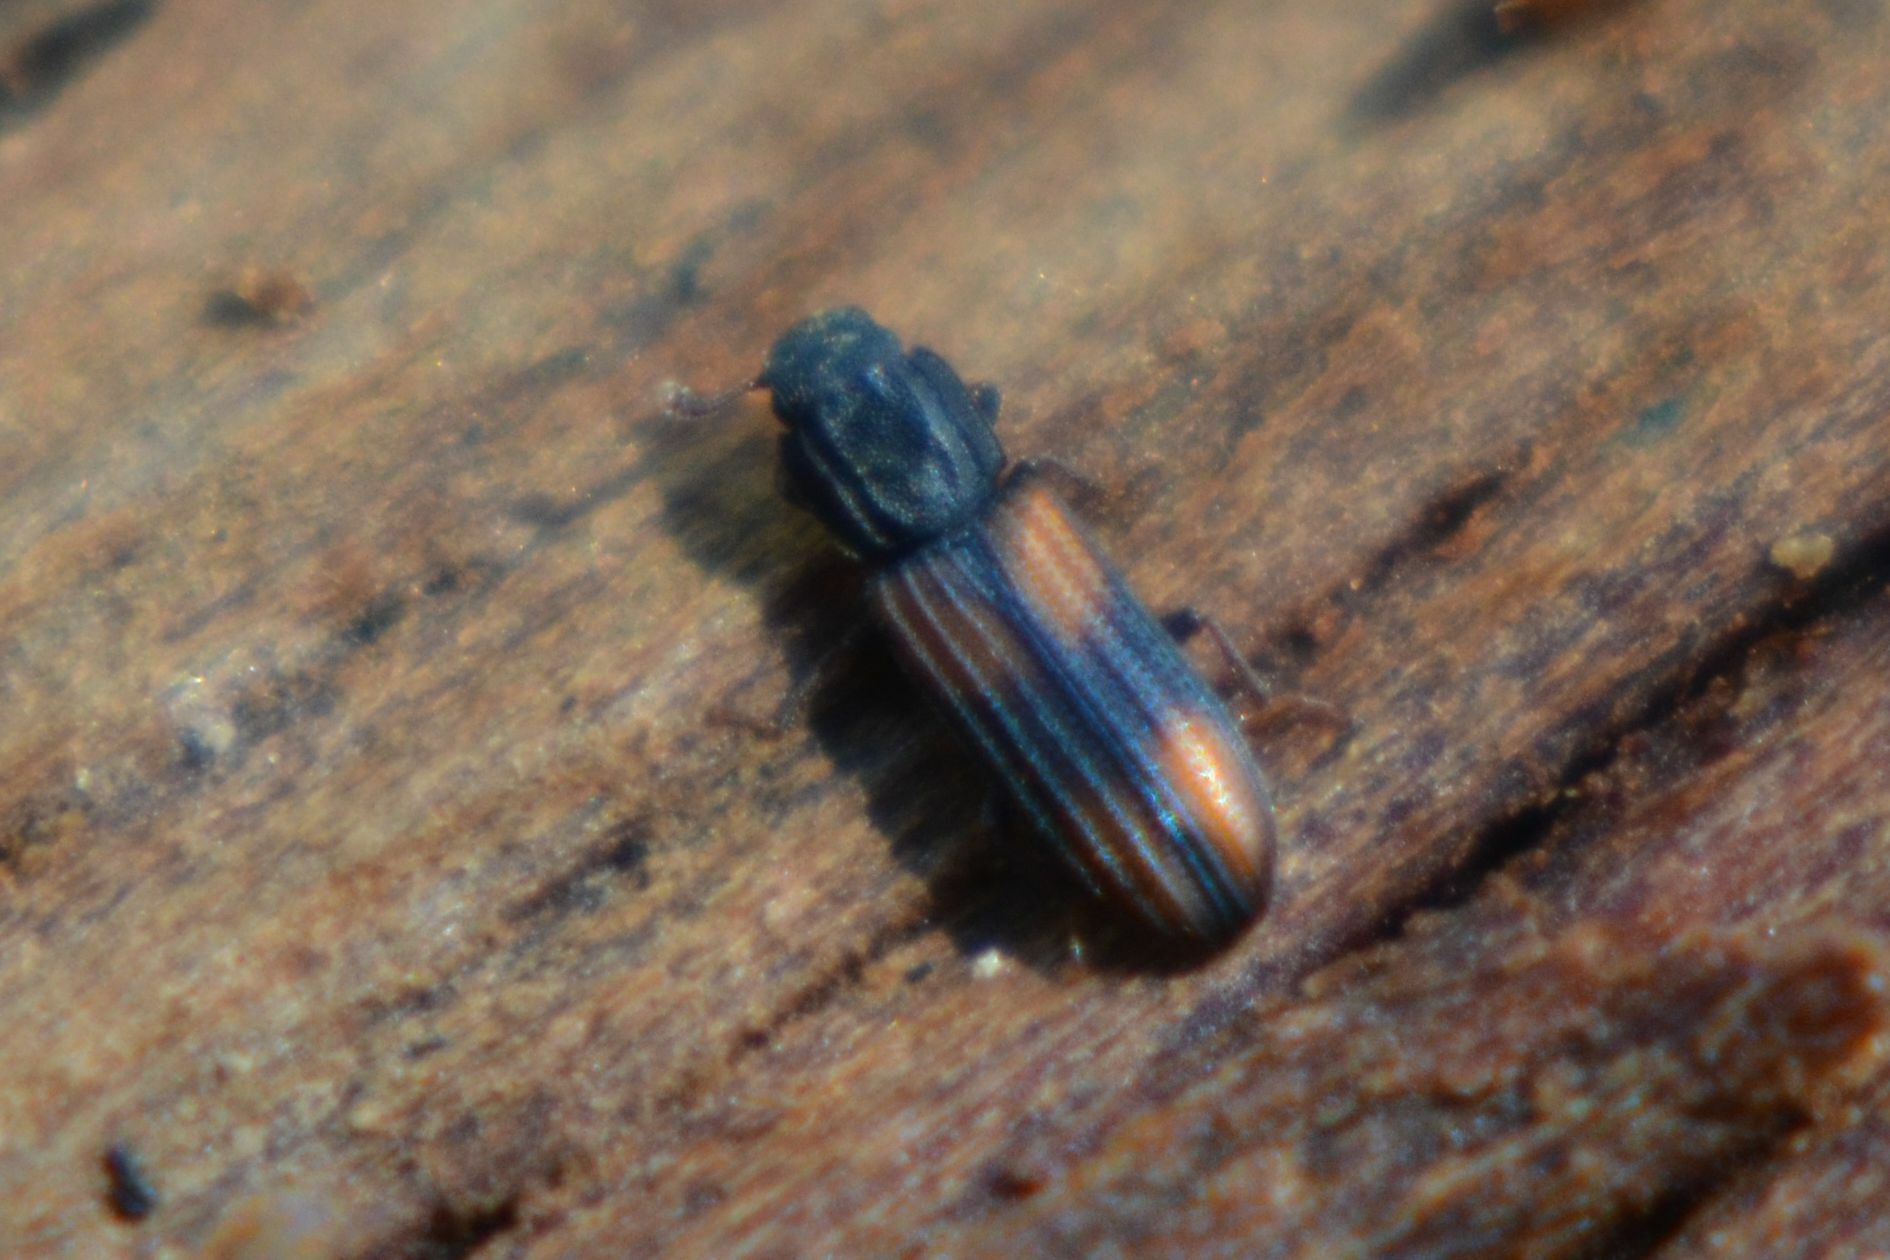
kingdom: Animalia
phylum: Arthropoda
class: Insecta
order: Coleoptera
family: Zopheridae
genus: Bitoma
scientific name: Bitoma crenata
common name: Bark beetle
